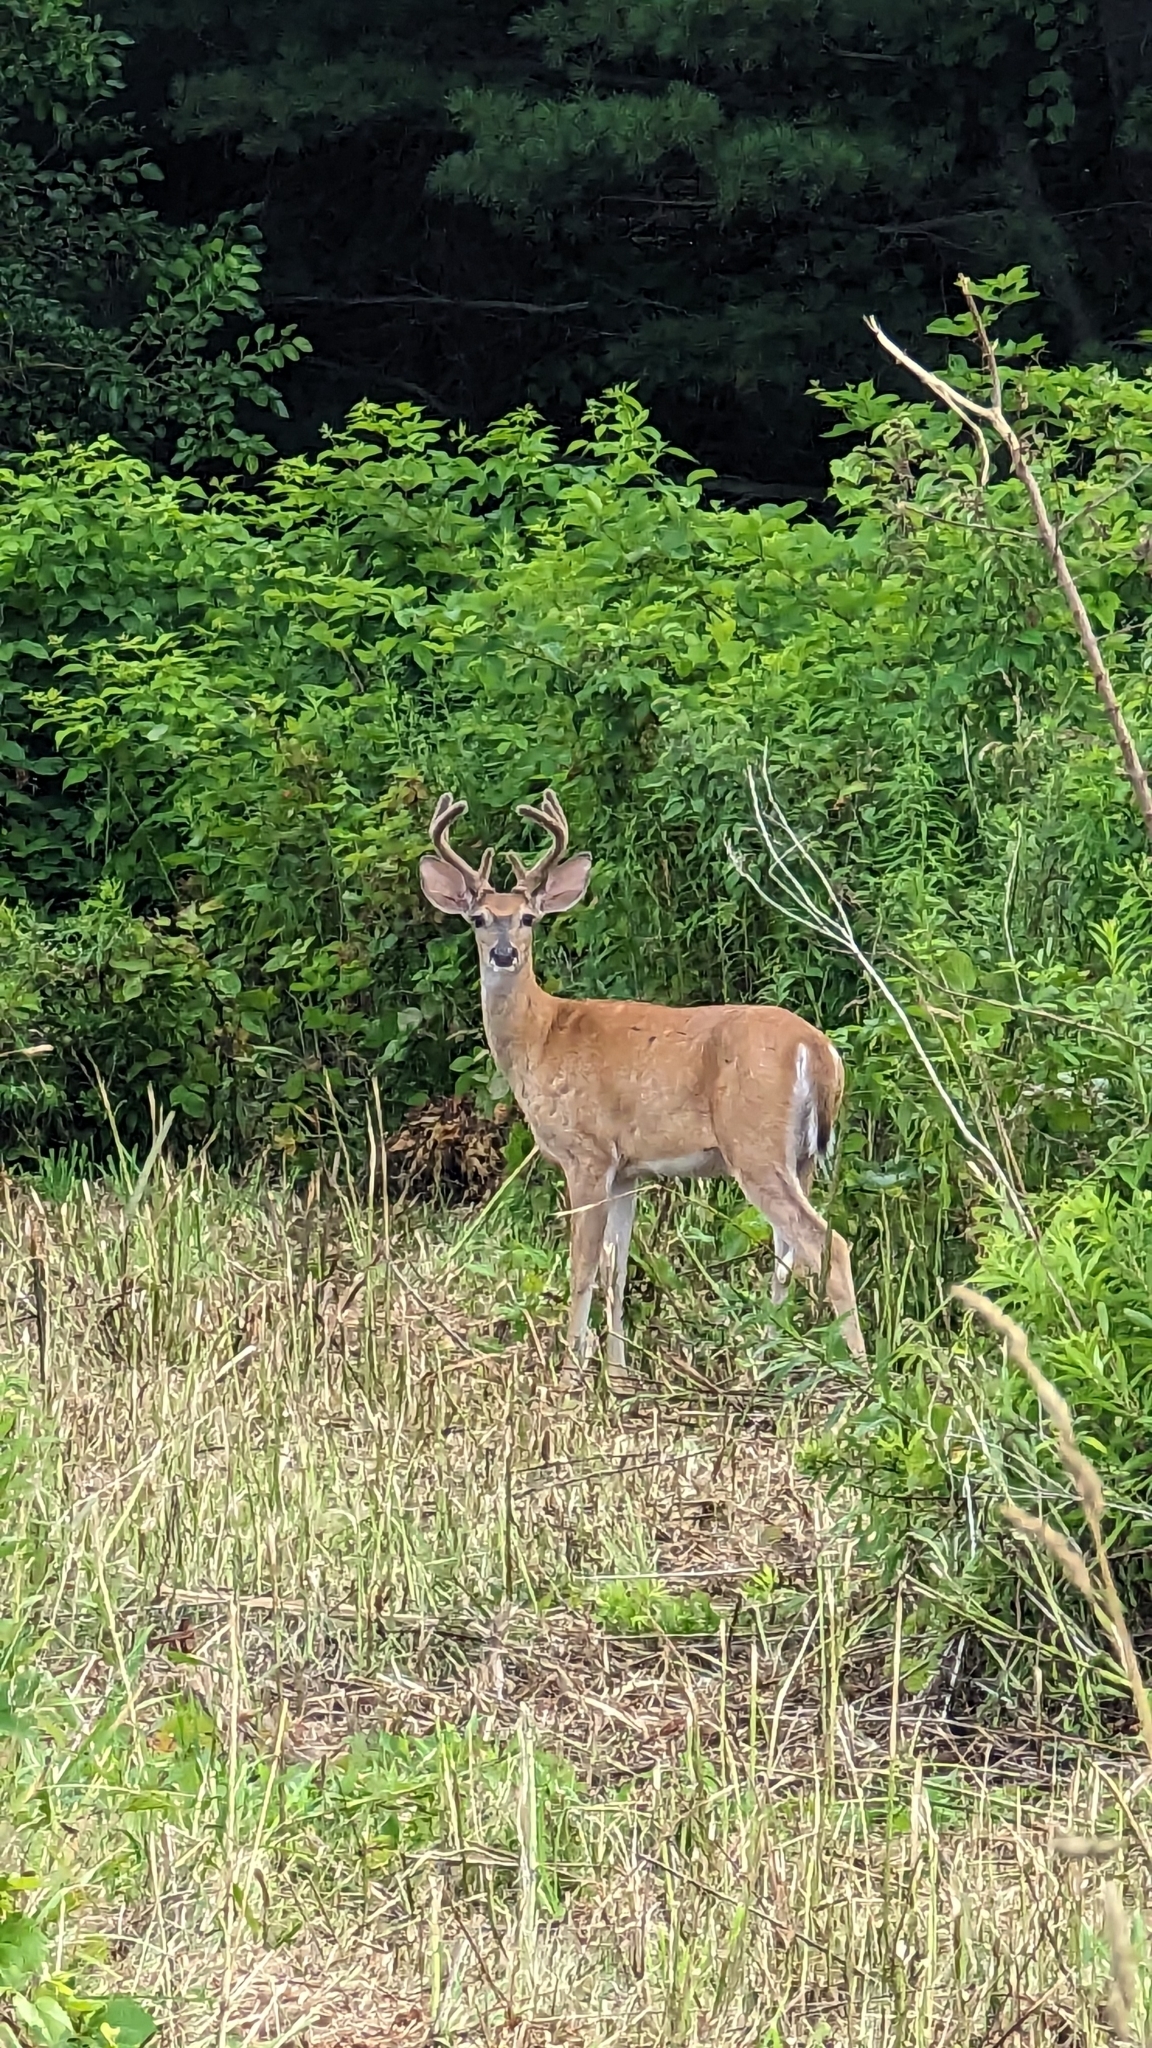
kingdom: Animalia
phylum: Chordata
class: Mammalia
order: Artiodactyla
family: Cervidae
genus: Odocoileus
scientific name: Odocoileus virginianus
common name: White-tailed deer
